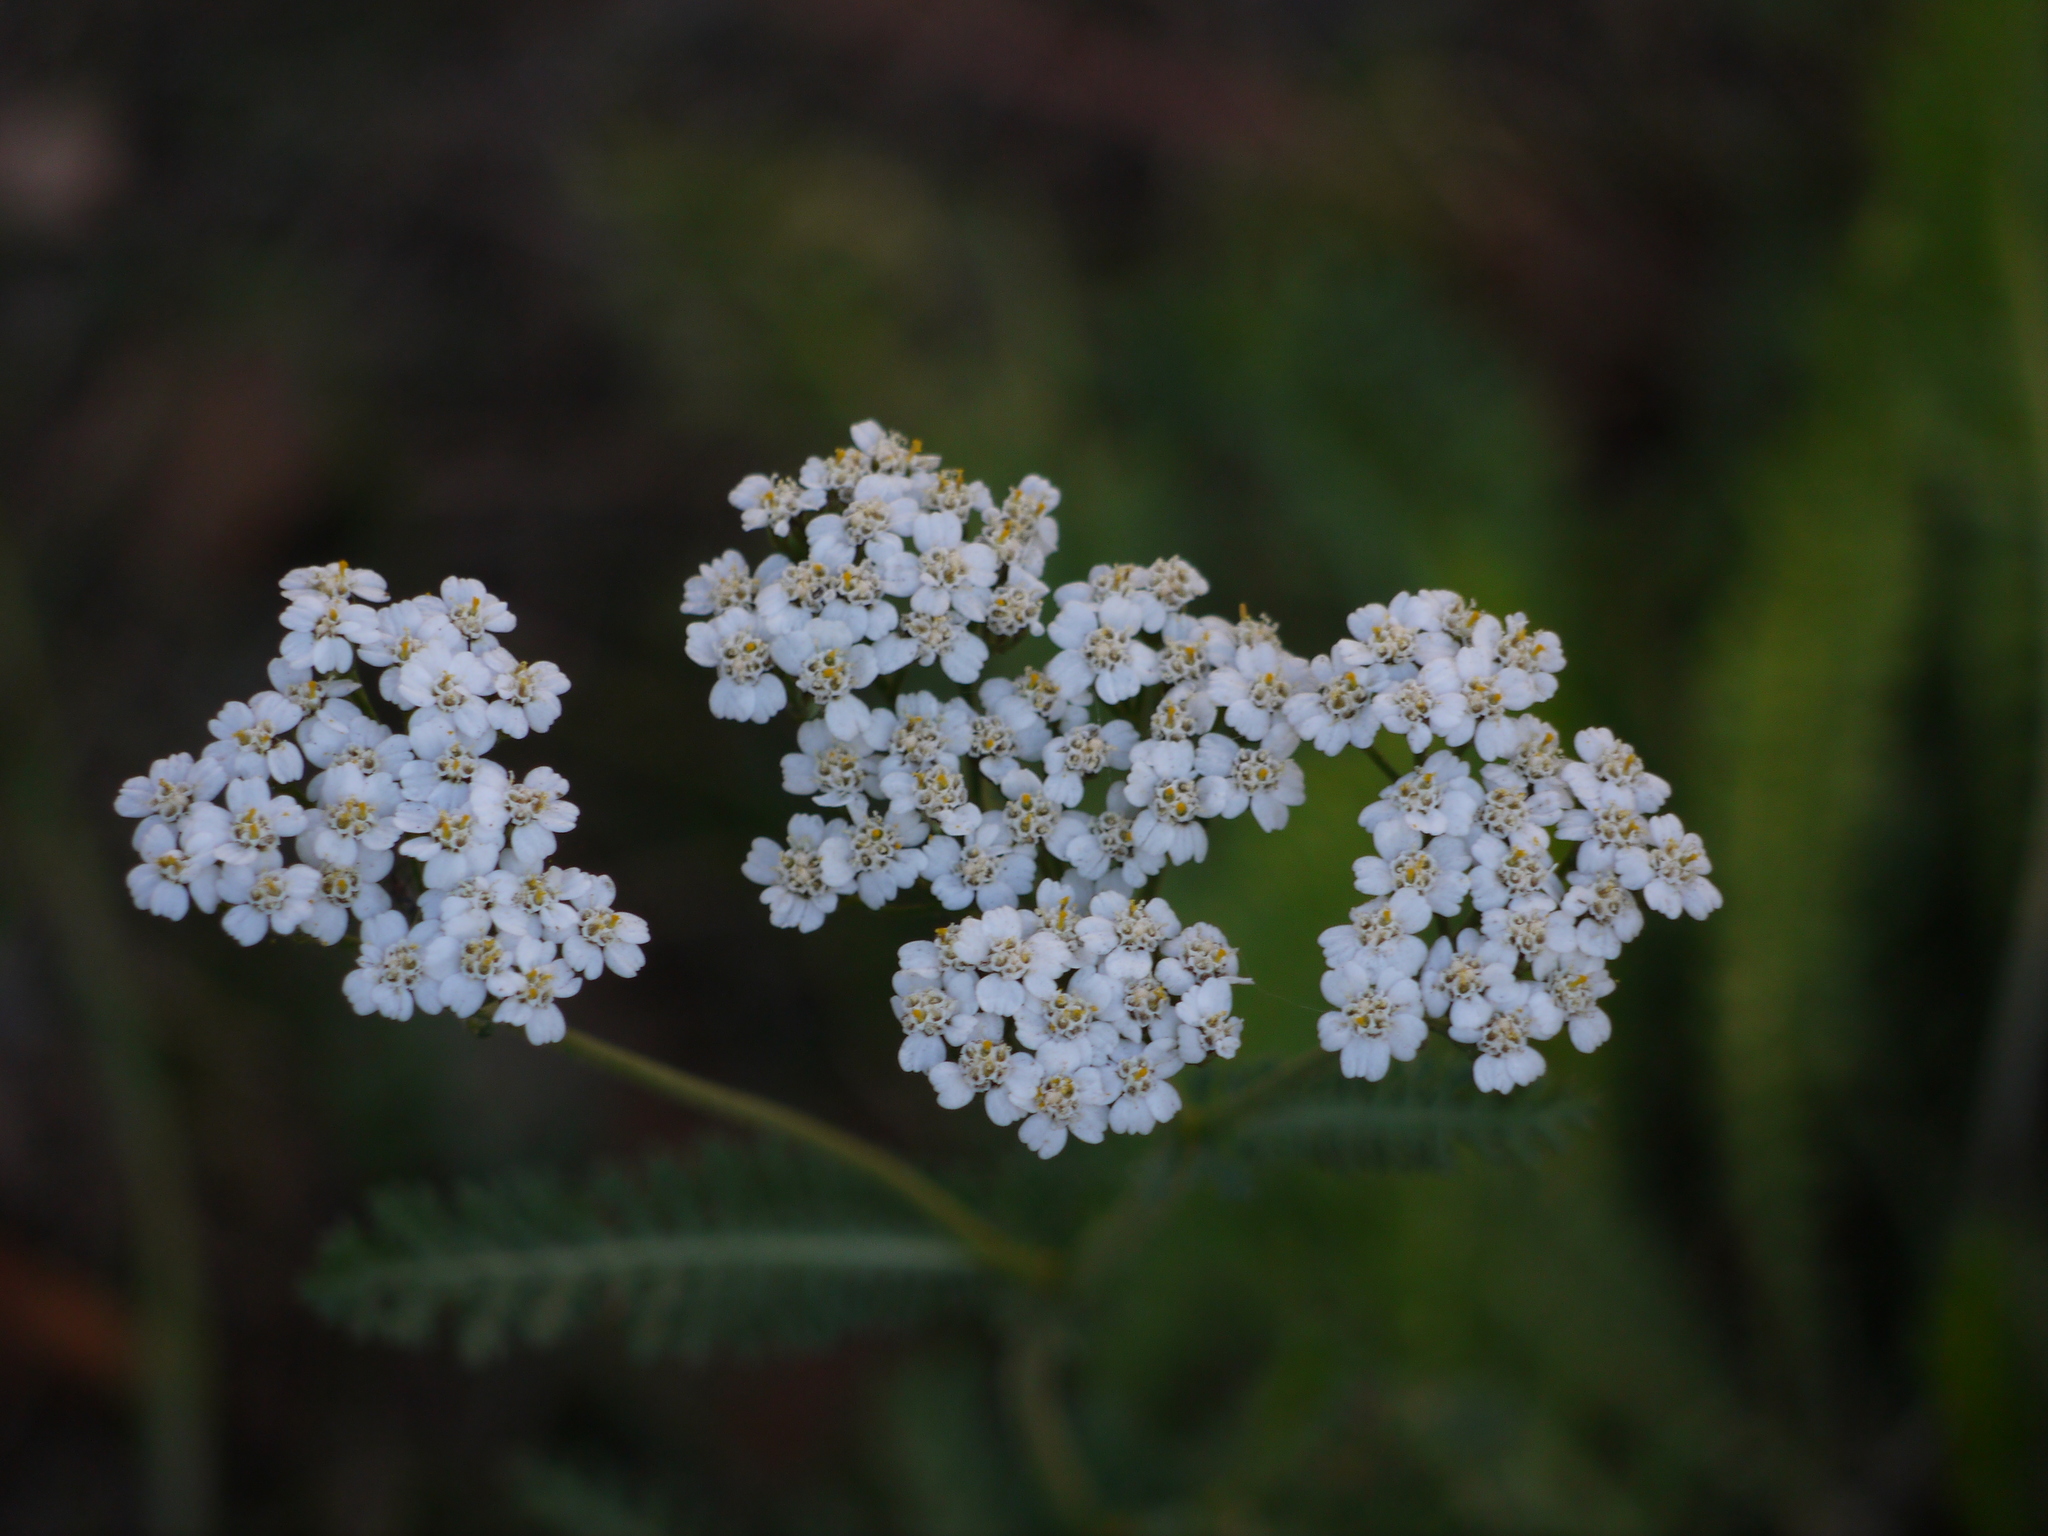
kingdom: Plantae
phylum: Tracheophyta
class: Magnoliopsida
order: Asterales
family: Asteraceae
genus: Achillea
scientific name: Achillea millefolium
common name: Yarrow
